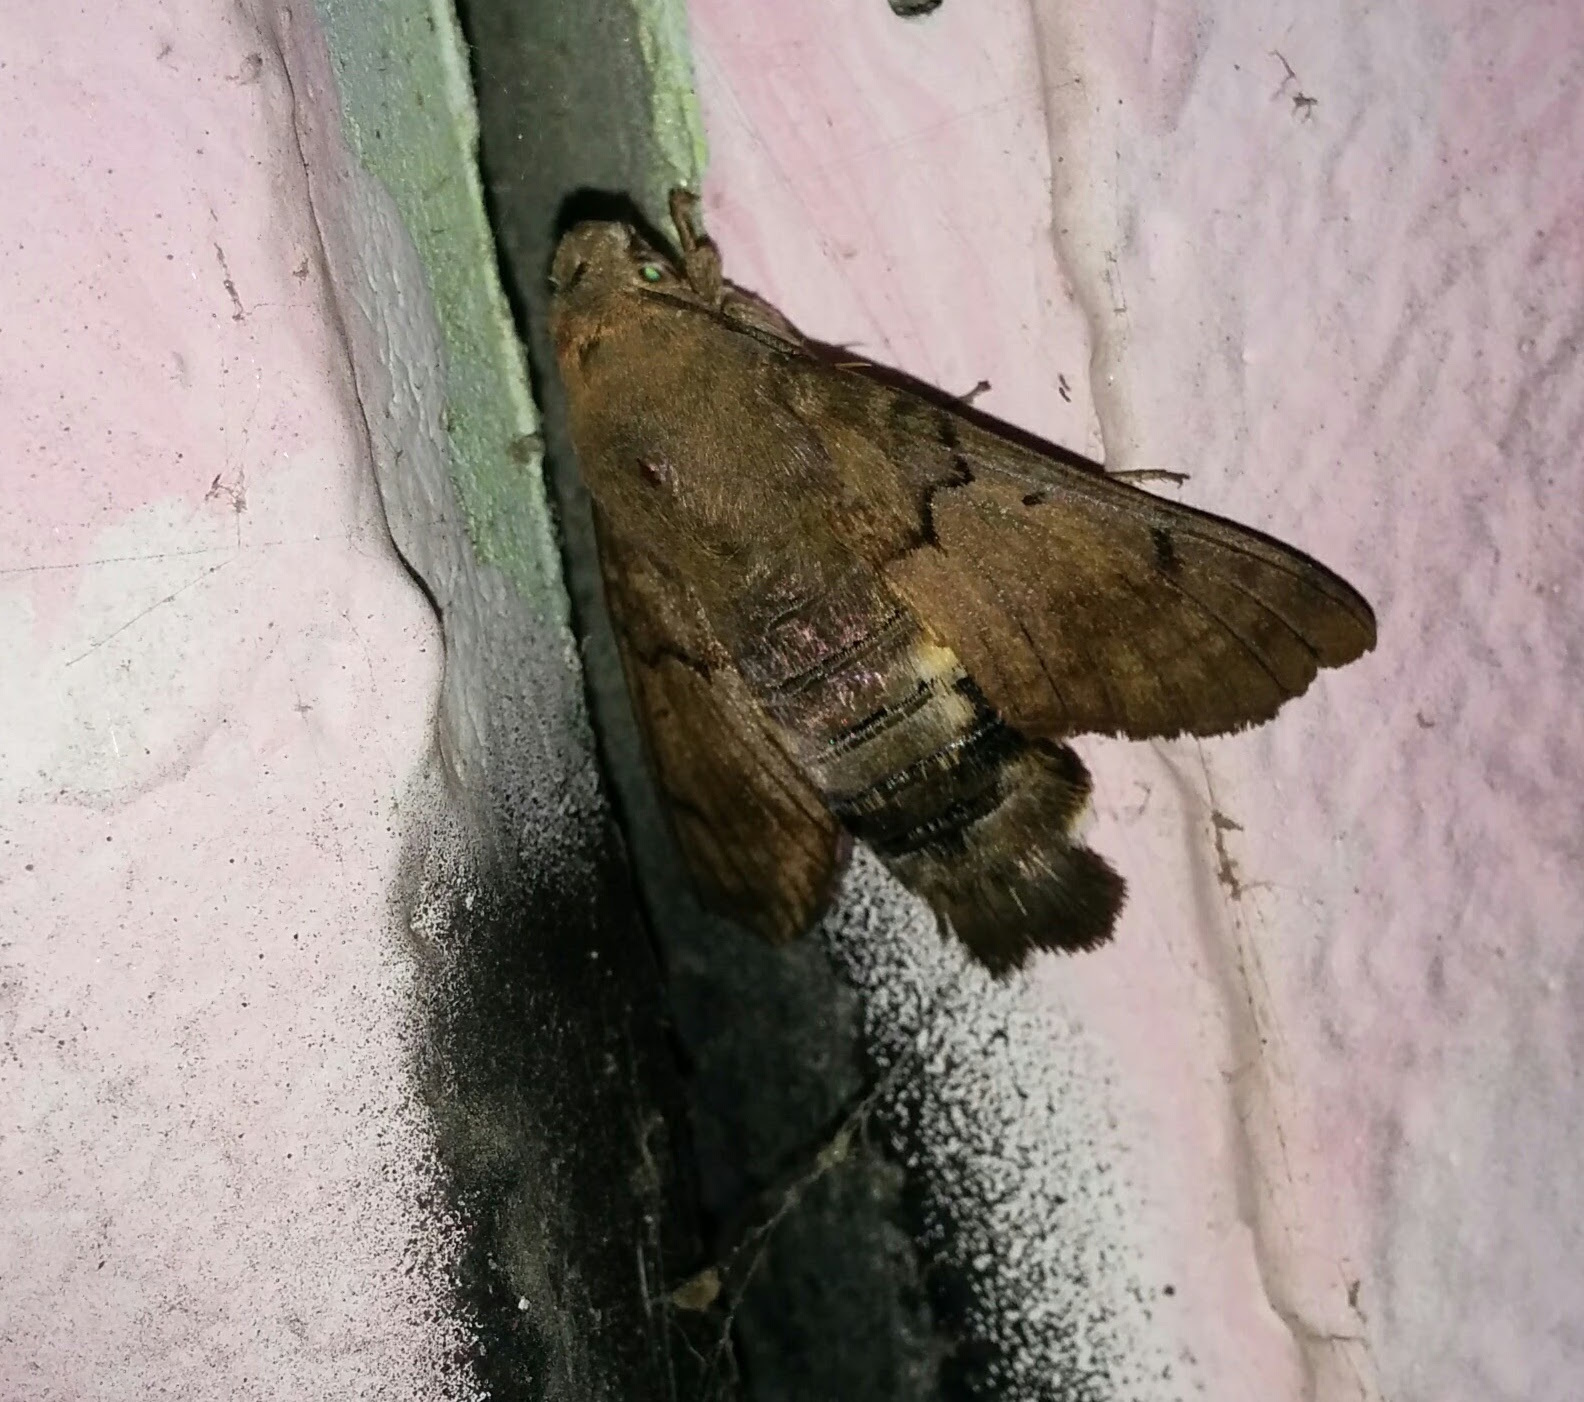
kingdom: Animalia
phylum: Arthropoda
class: Insecta
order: Lepidoptera
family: Sphingidae
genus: Macroglossum
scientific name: Macroglossum stellatarum
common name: Humming-bird hawk-moth
